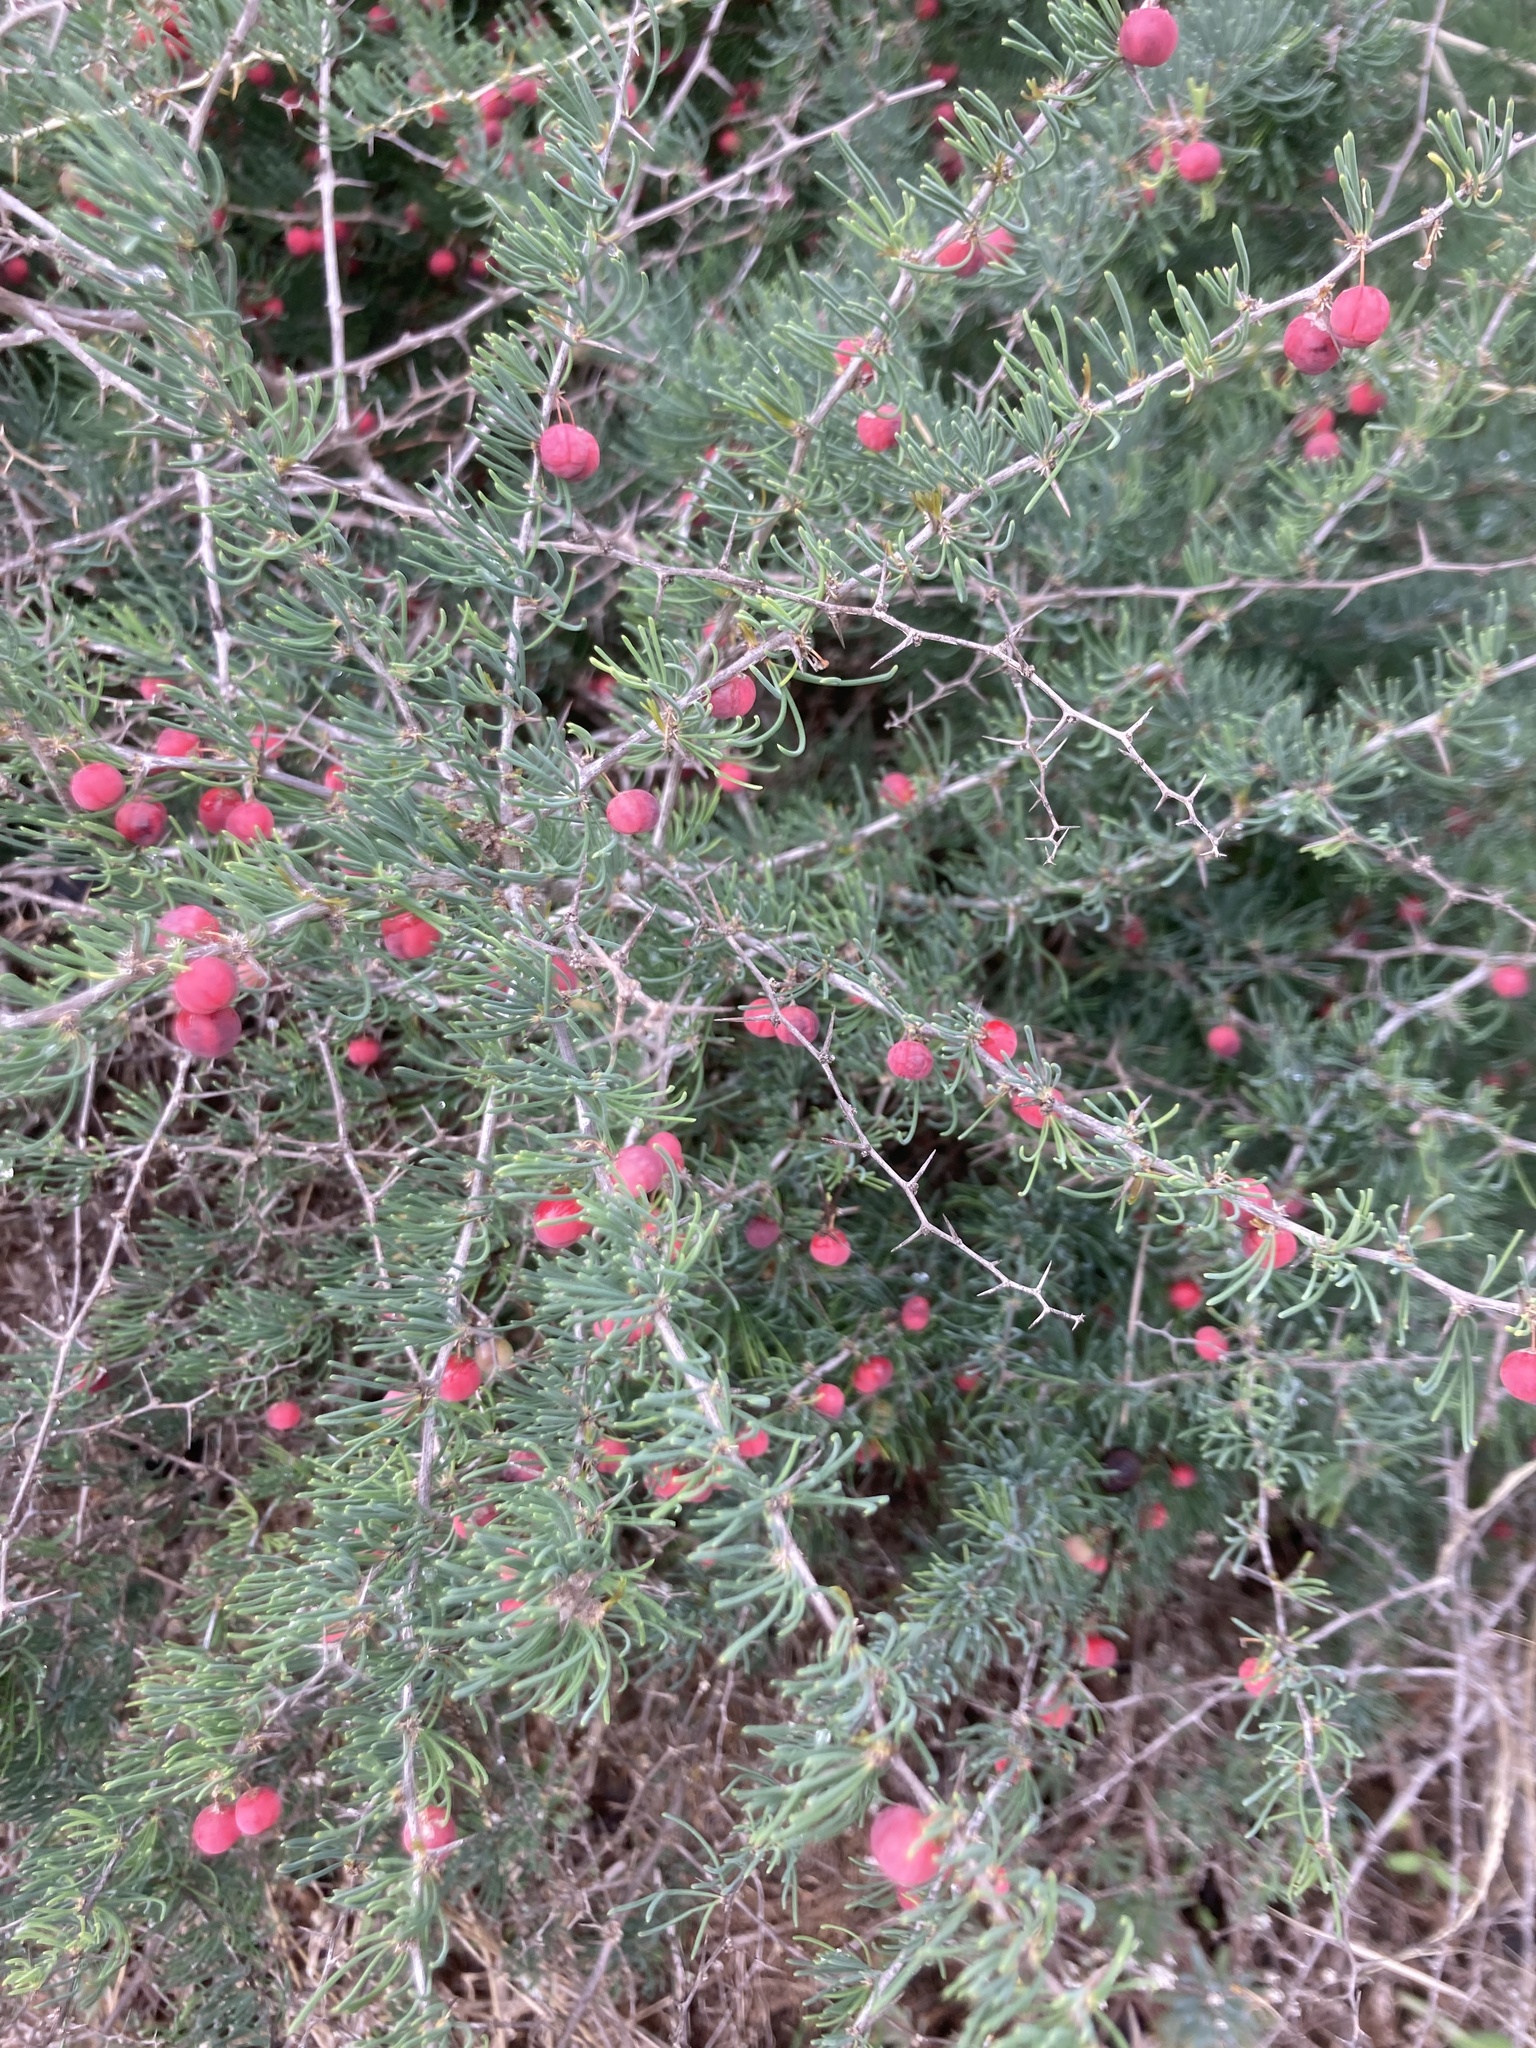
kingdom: Plantae
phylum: Tracheophyta
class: Liliopsida
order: Asparagales
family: Asparagaceae
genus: Asparagus
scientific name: Asparagus albus
